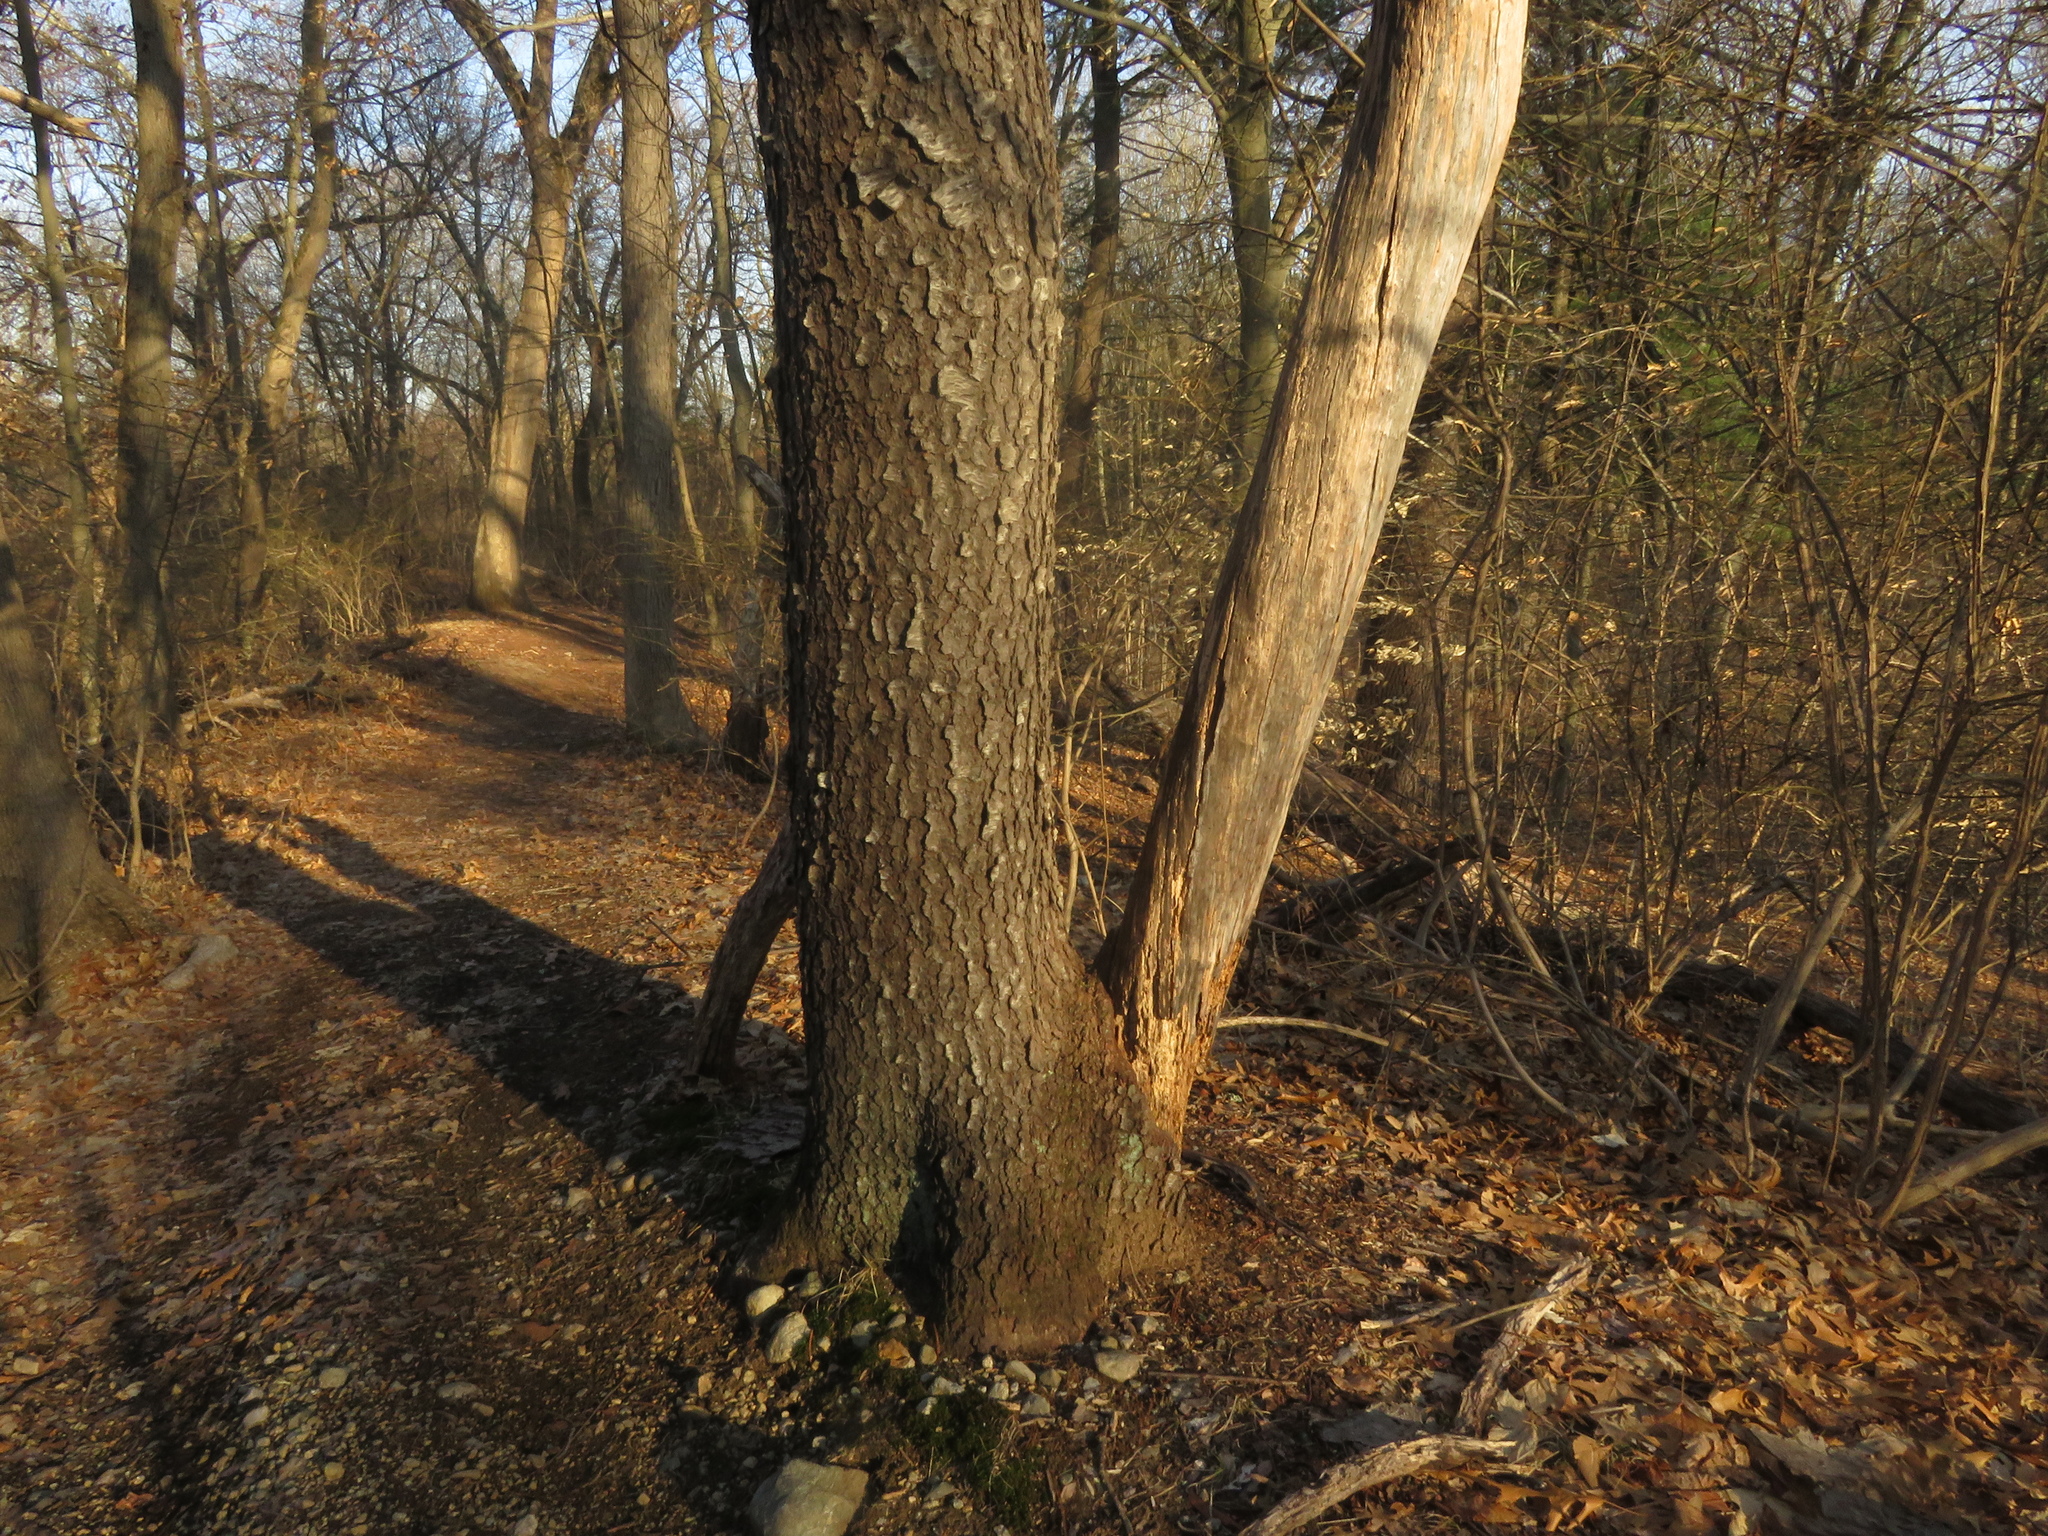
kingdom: Plantae
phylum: Tracheophyta
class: Magnoliopsida
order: Rosales
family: Rosaceae
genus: Prunus
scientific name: Prunus serotina
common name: Black cherry
